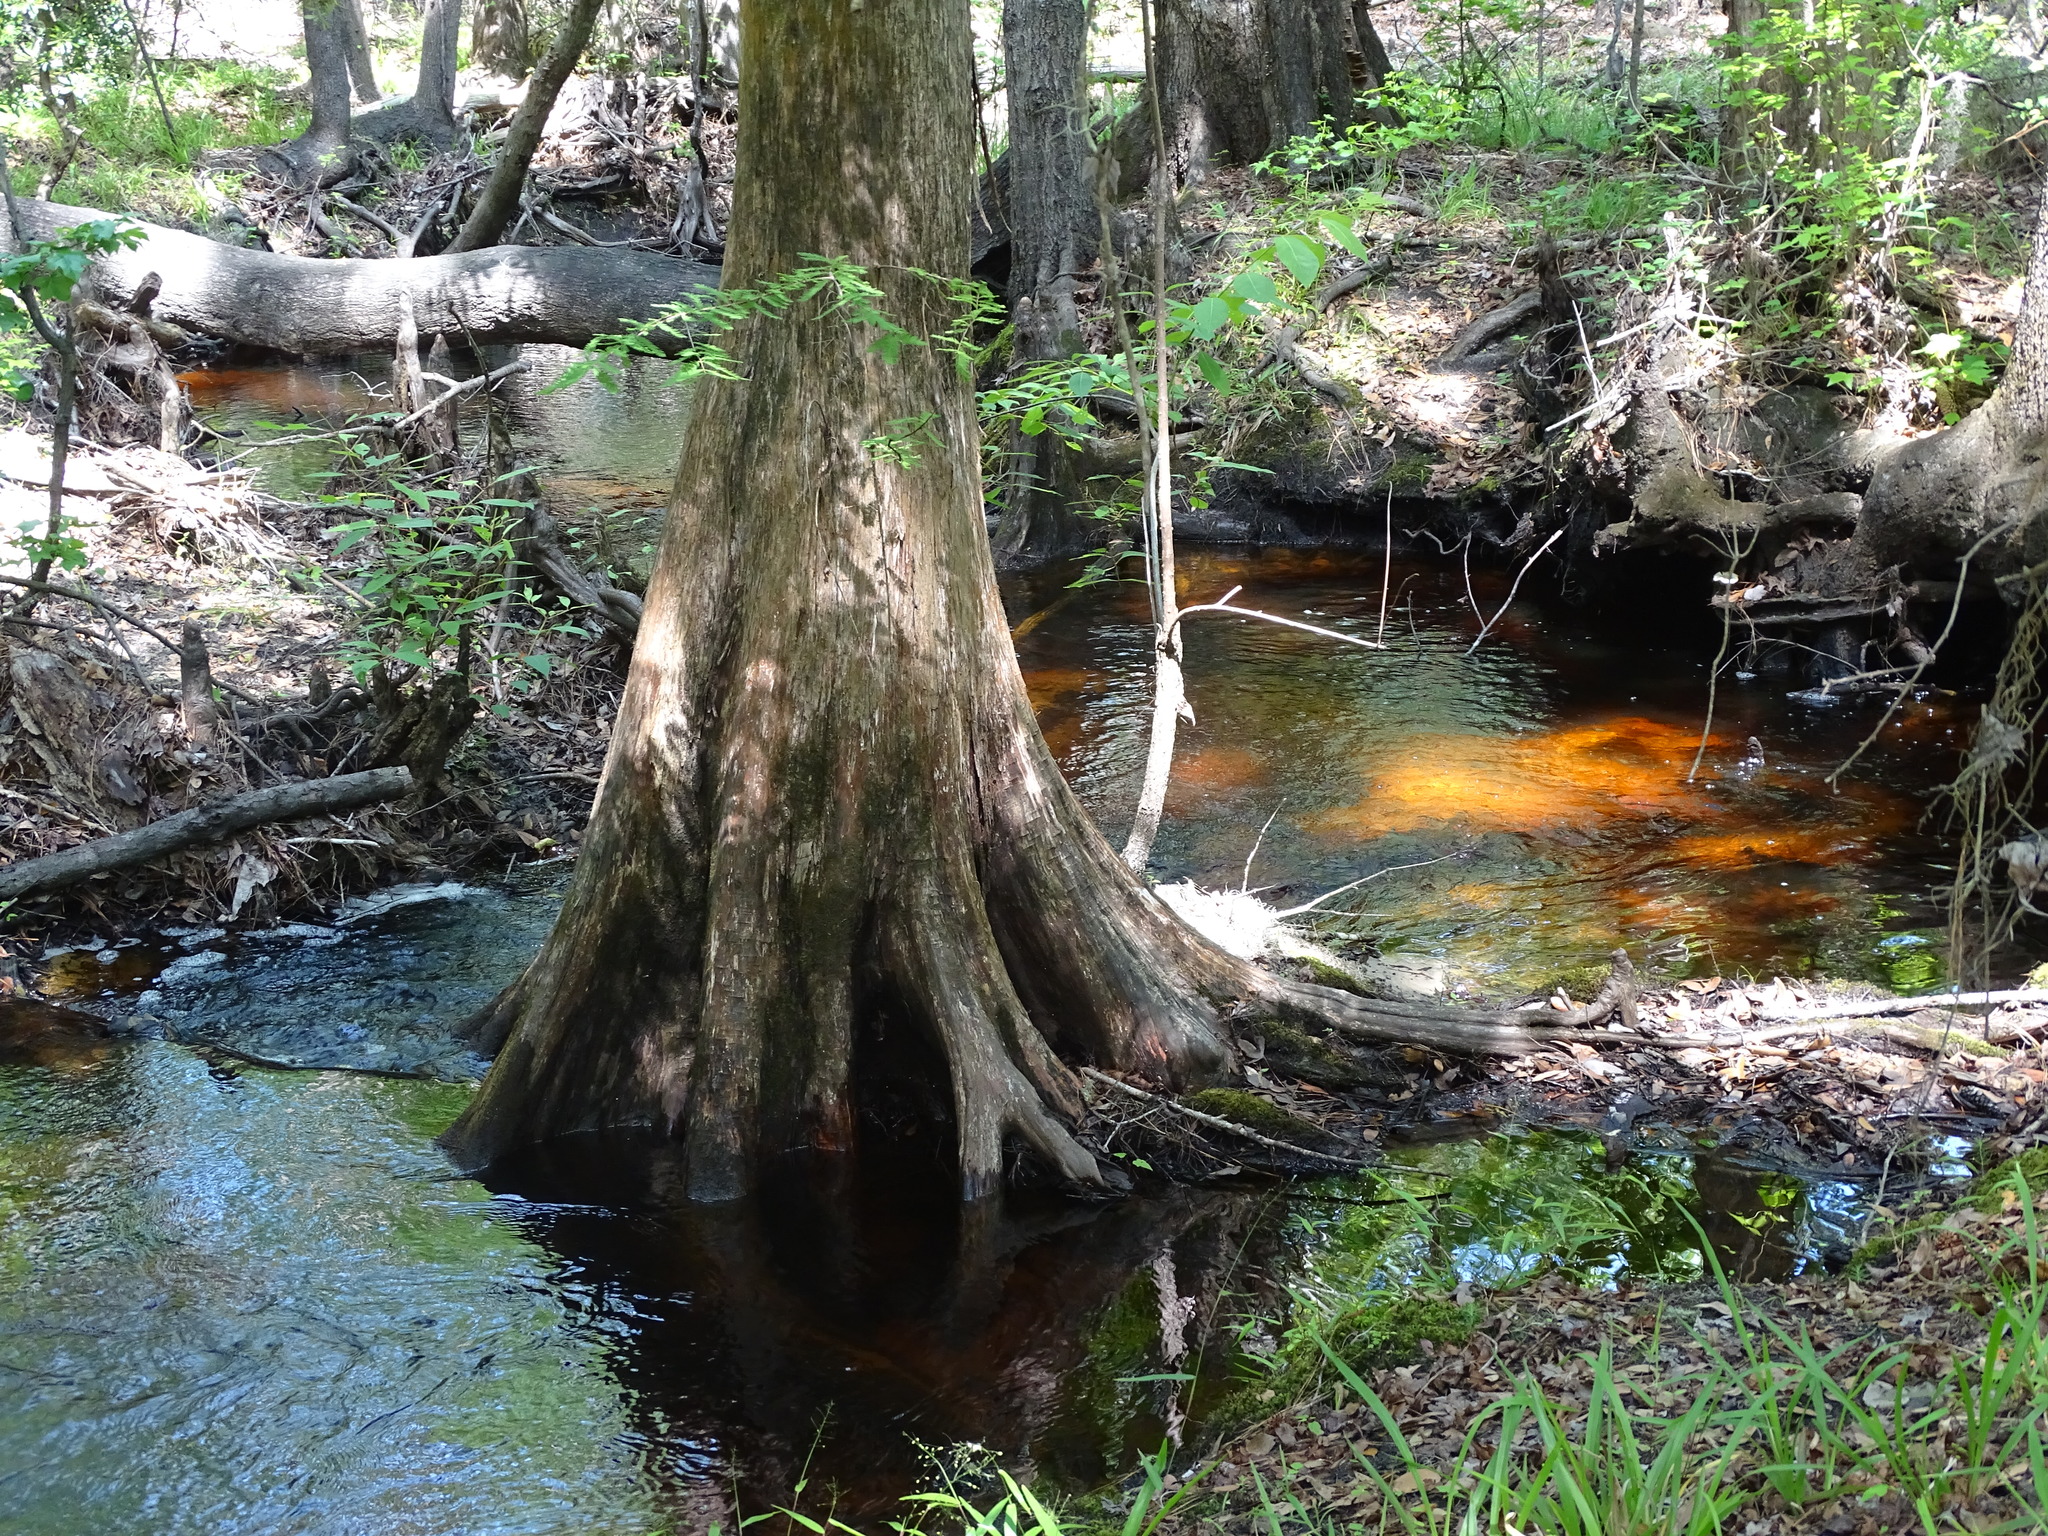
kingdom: Plantae
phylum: Tracheophyta
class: Pinopsida
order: Pinales
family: Cupressaceae
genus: Taxodium
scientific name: Taxodium distichum
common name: Bald cypress
